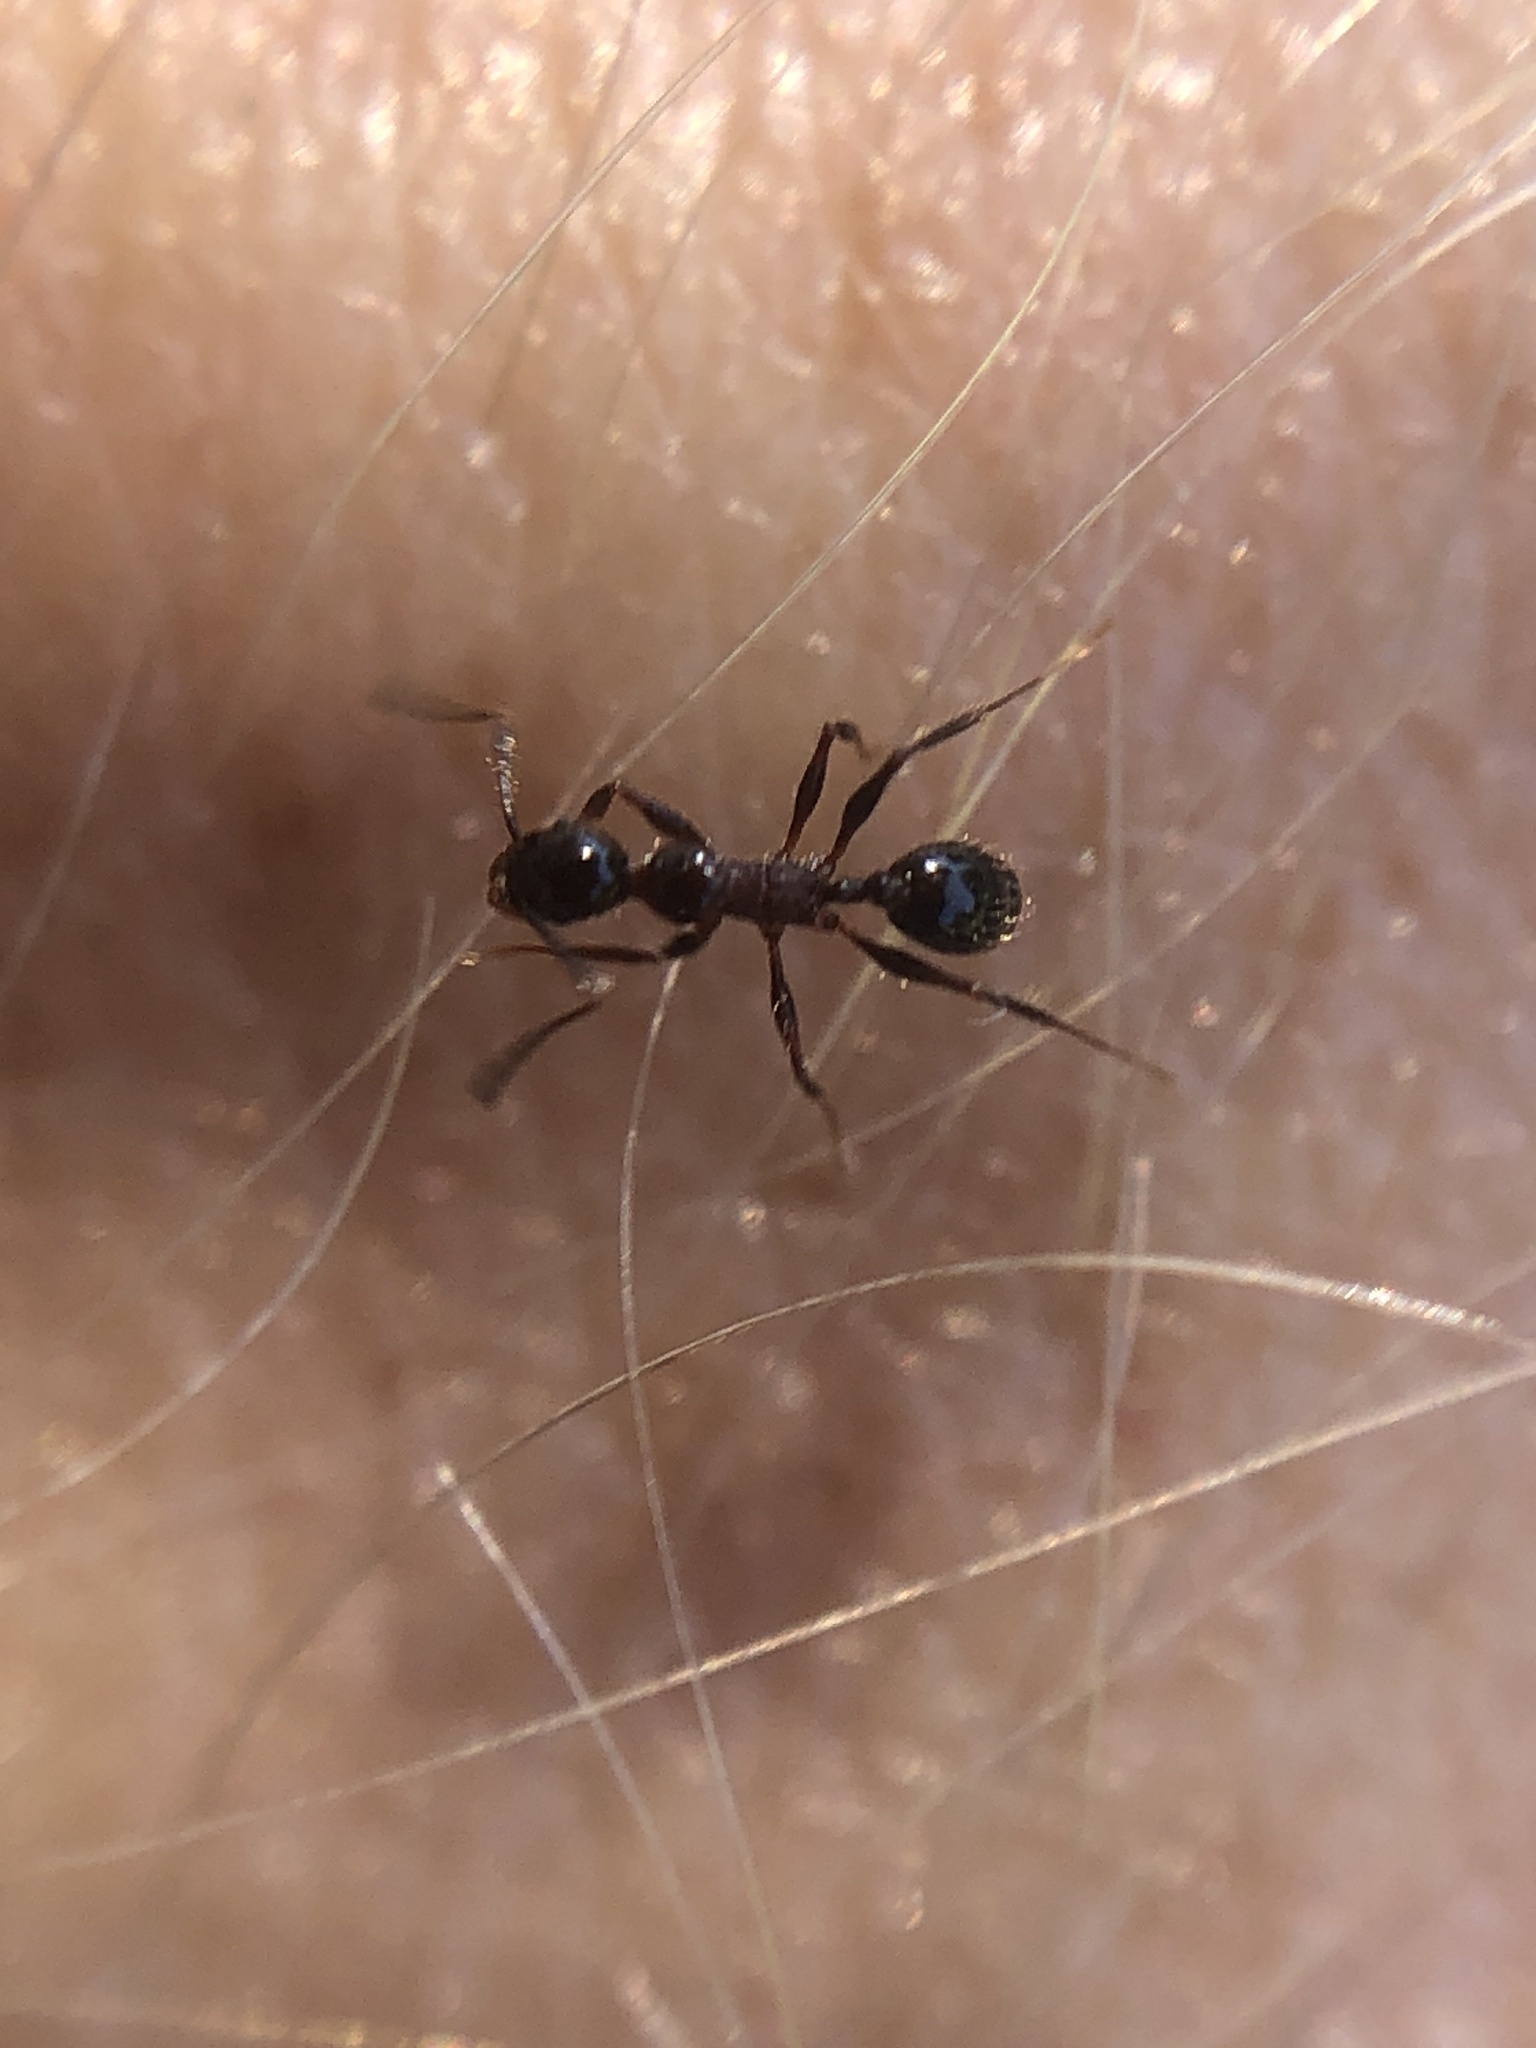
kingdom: Animalia
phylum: Arthropoda
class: Insecta
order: Hymenoptera
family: Formicidae
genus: Pheidole
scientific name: Pheidole obscurithorax
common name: Obscure big-headed ant
